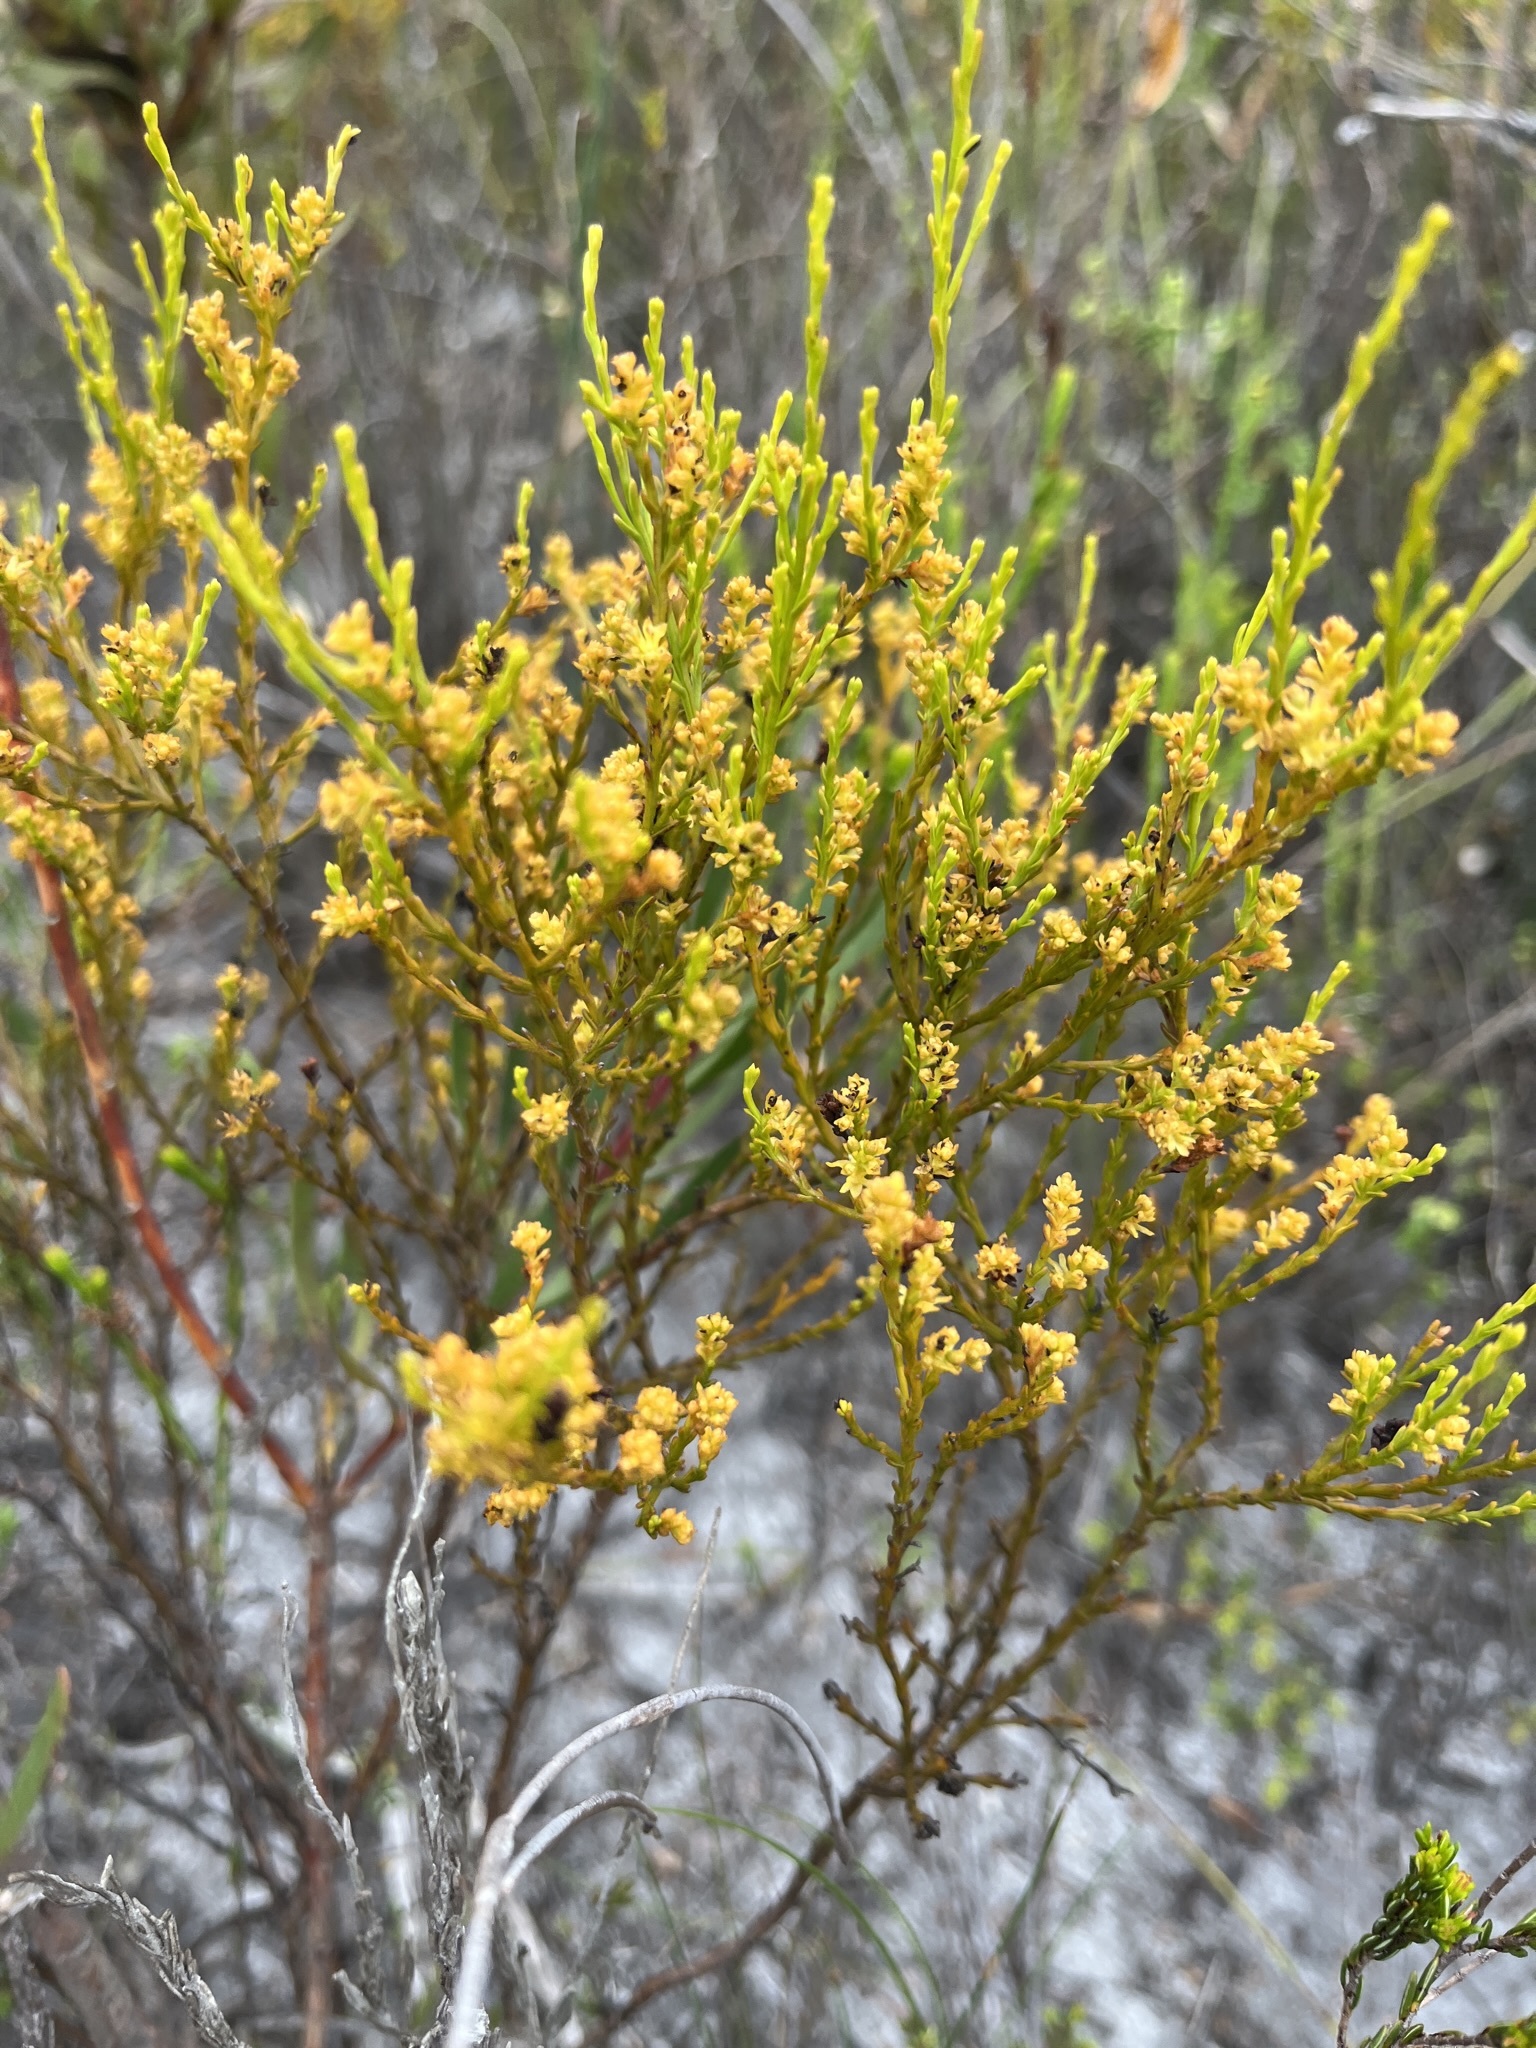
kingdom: Plantae
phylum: Tracheophyta
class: Magnoliopsida
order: Santalales
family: Thesiaceae
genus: Thesium
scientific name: Thesium ericiifolium
